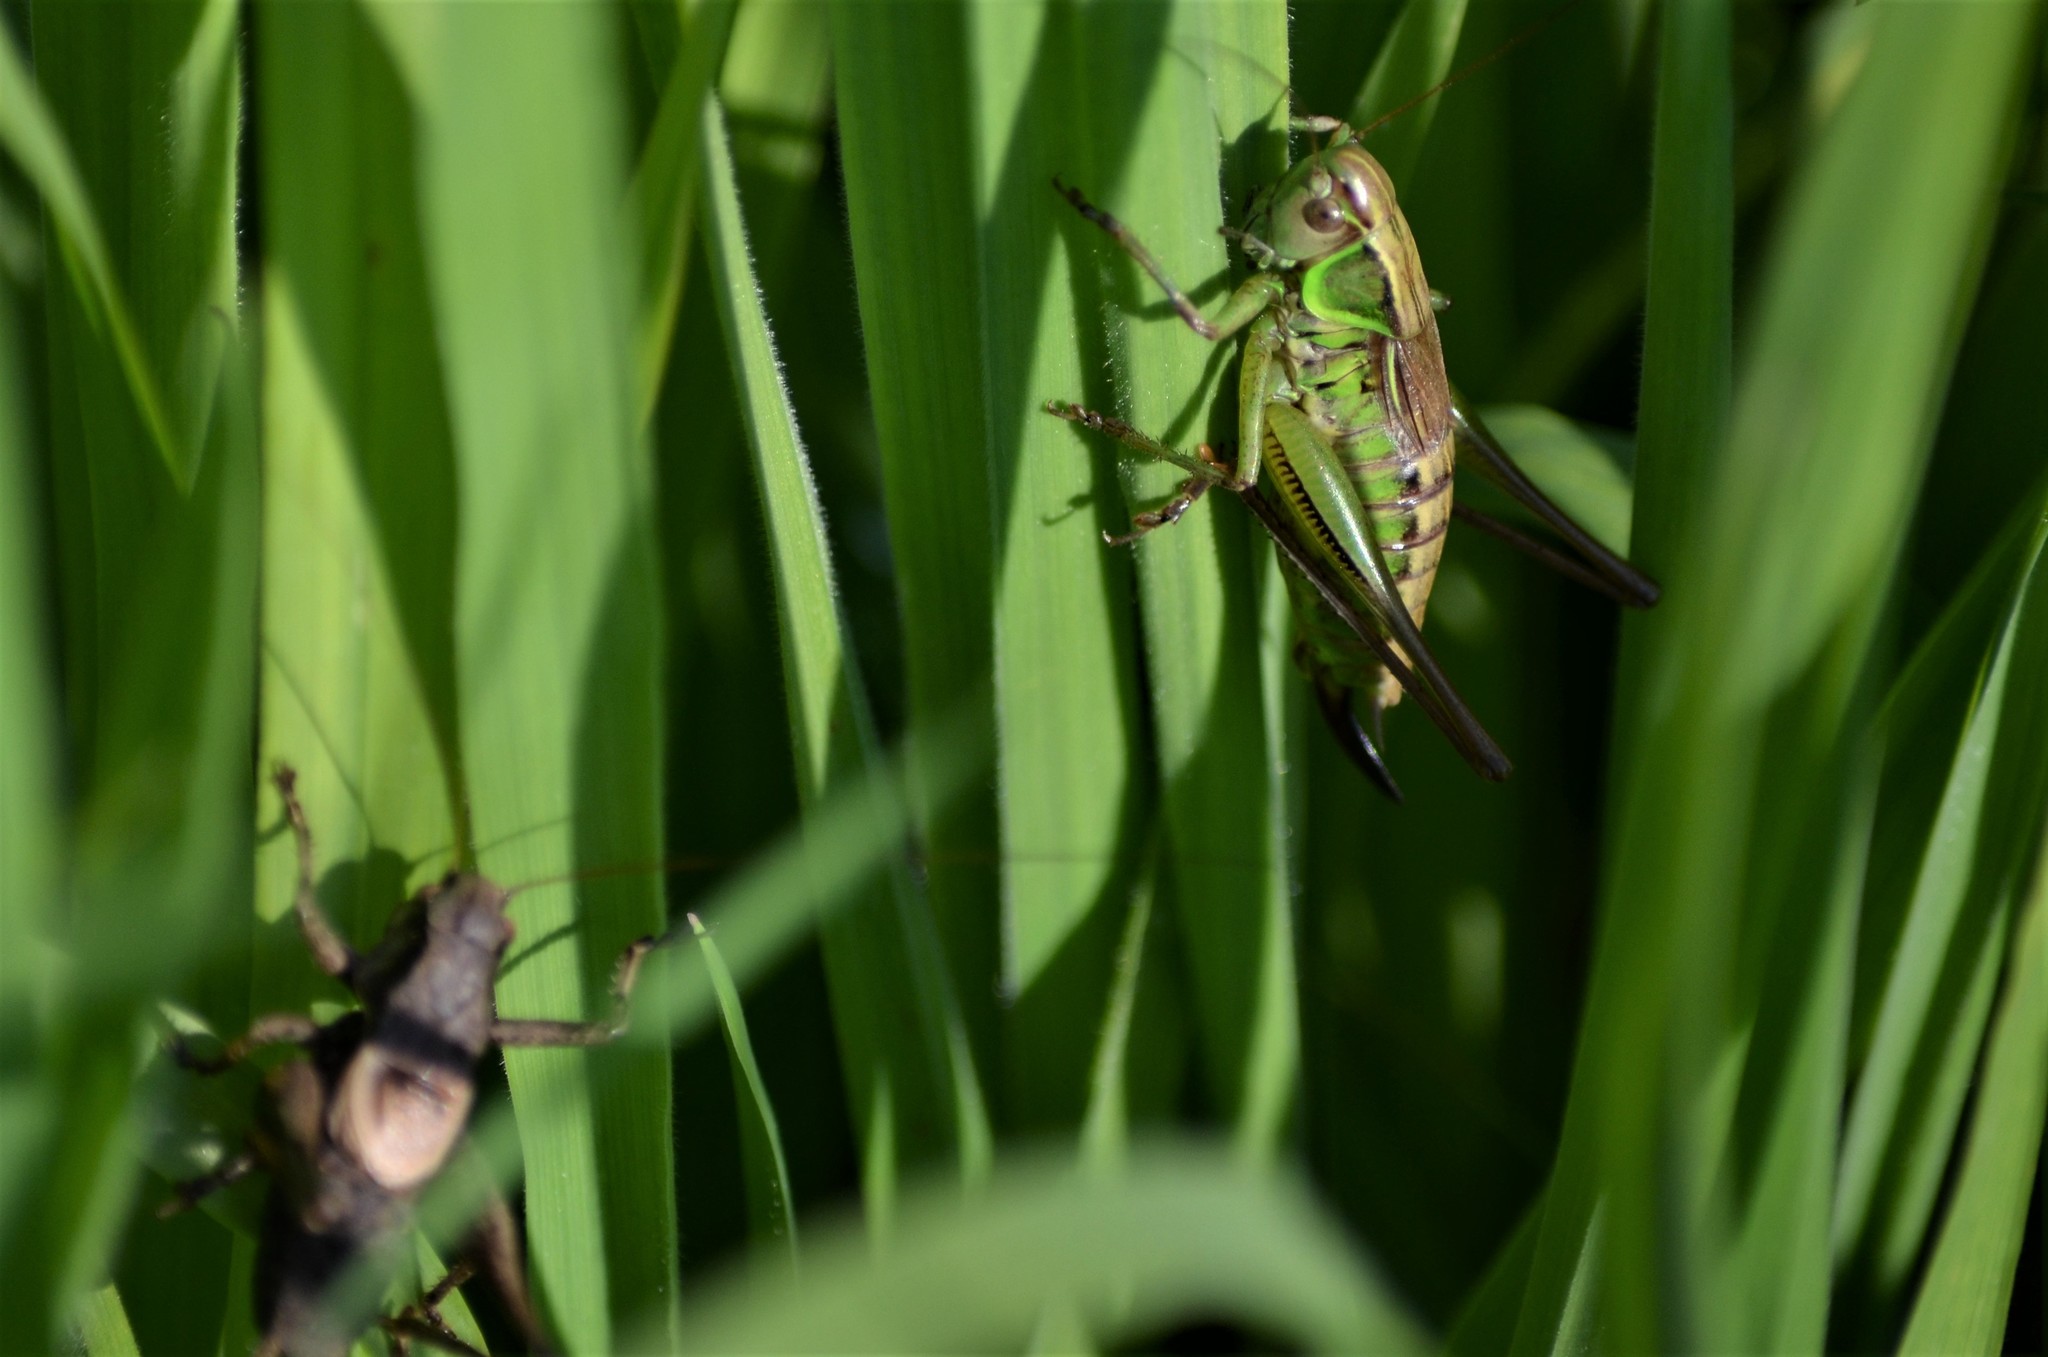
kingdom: Animalia
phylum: Arthropoda
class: Insecta
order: Orthoptera
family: Tettigoniidae
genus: Roeseliana
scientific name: Roeseliana roeselii
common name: Roesel's bush cricket
